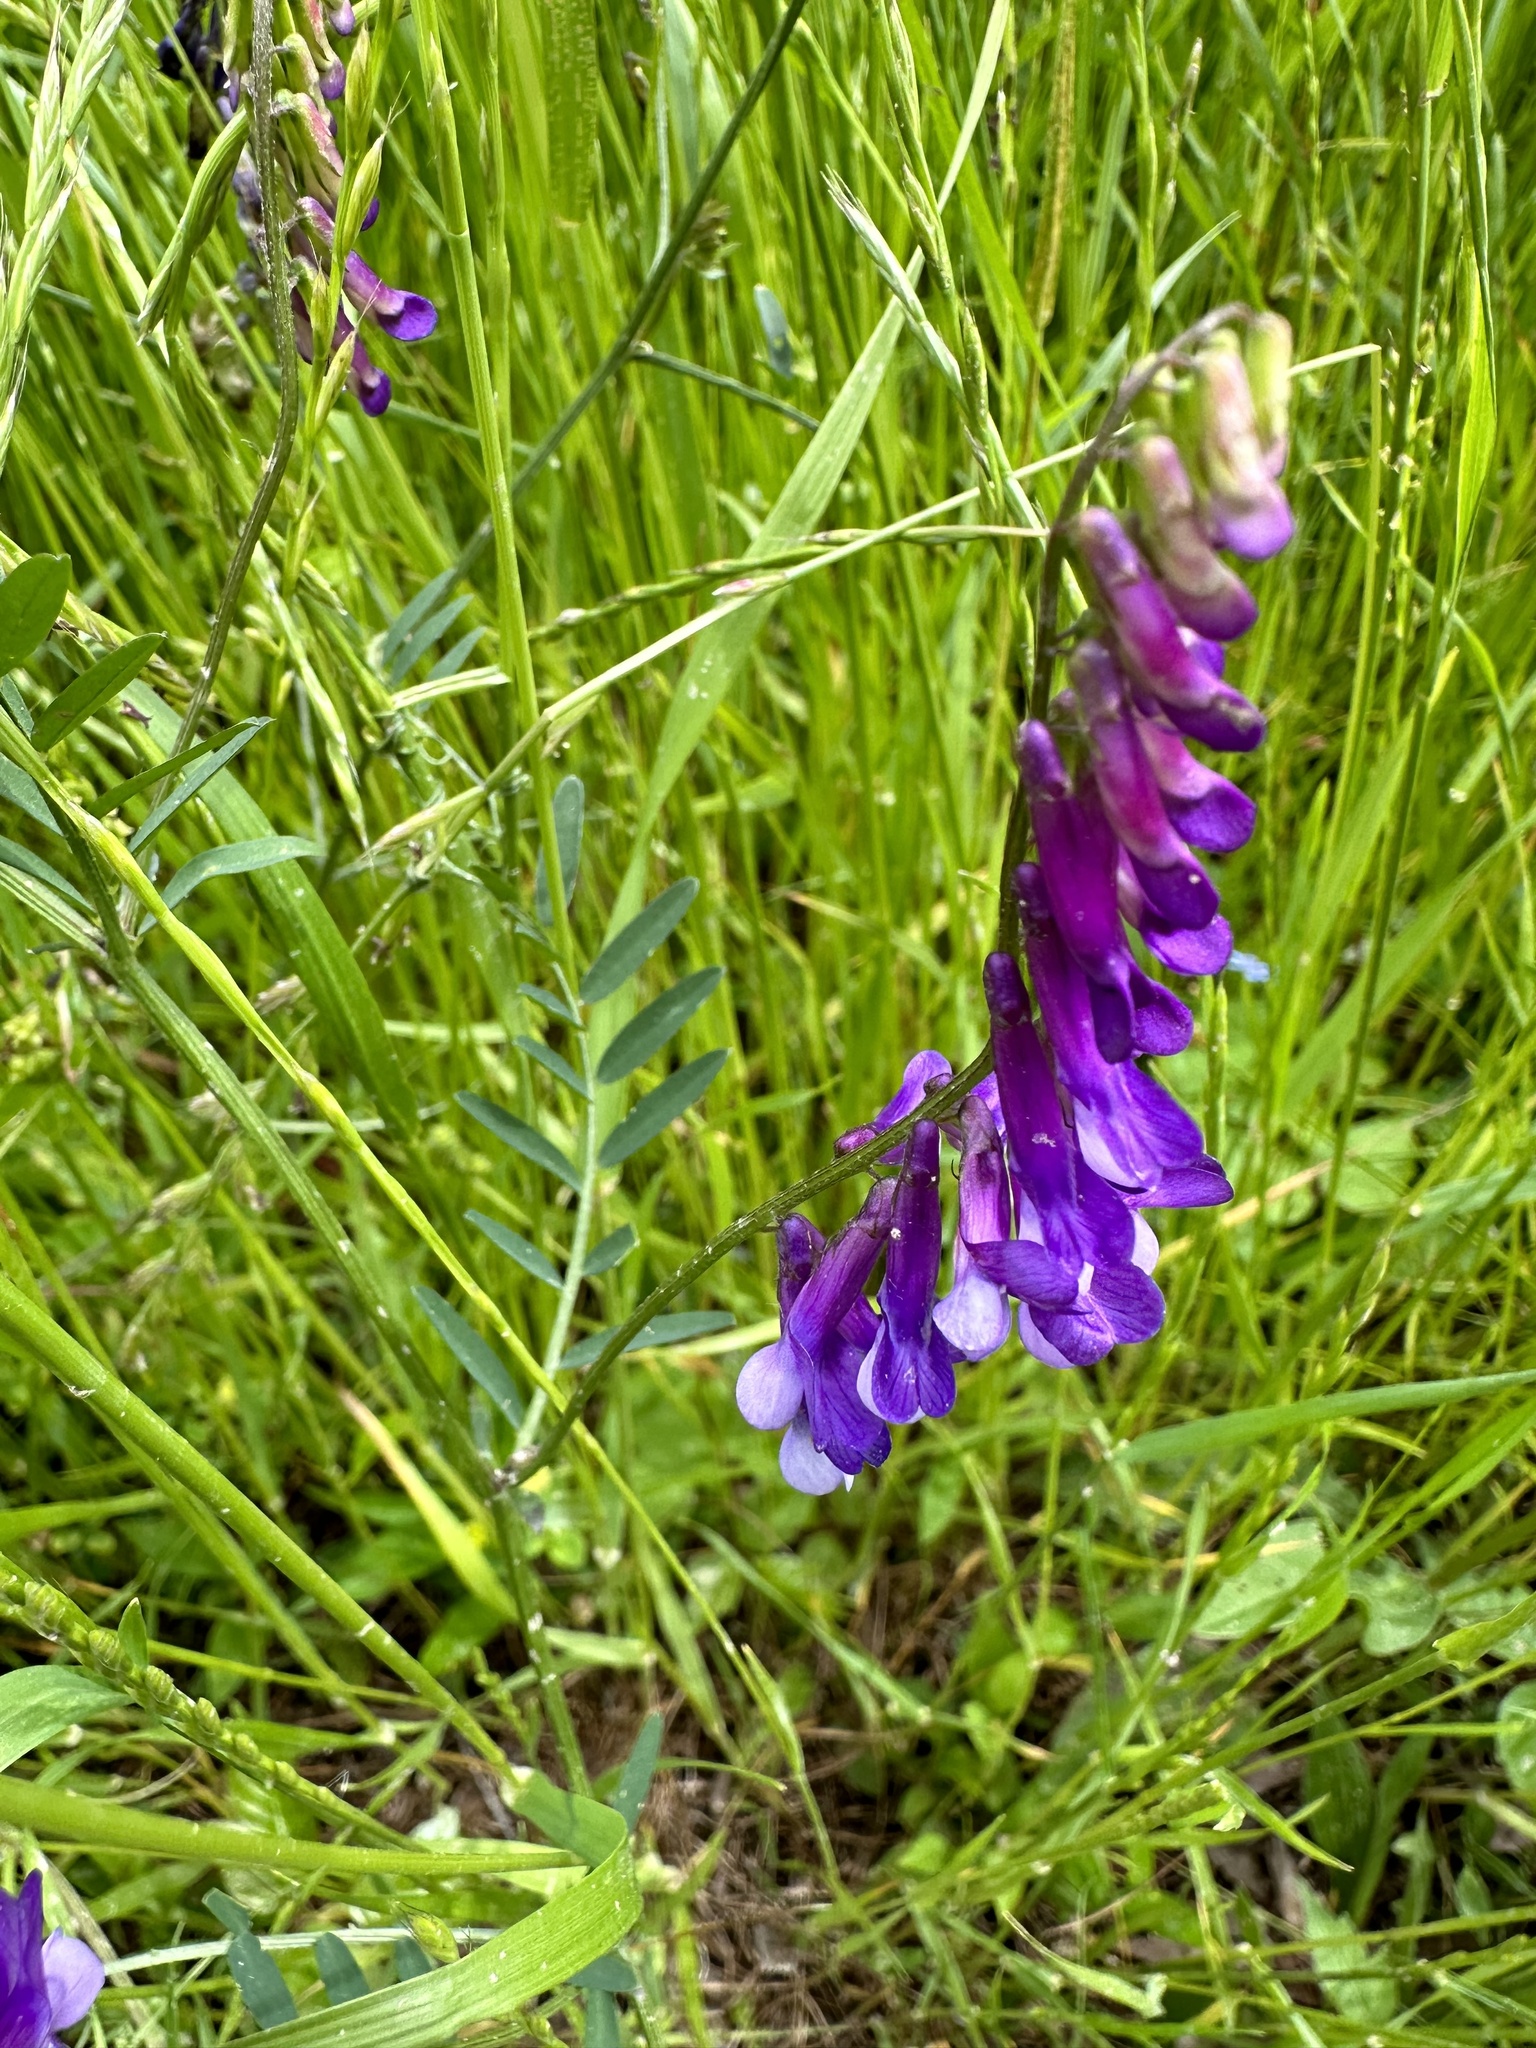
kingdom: Plantae
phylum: Tracheophyta
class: Magnoliopsida
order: Fabales
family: Fabaceae
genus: Vicia
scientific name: Vicia villosa
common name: Fodder vetch
